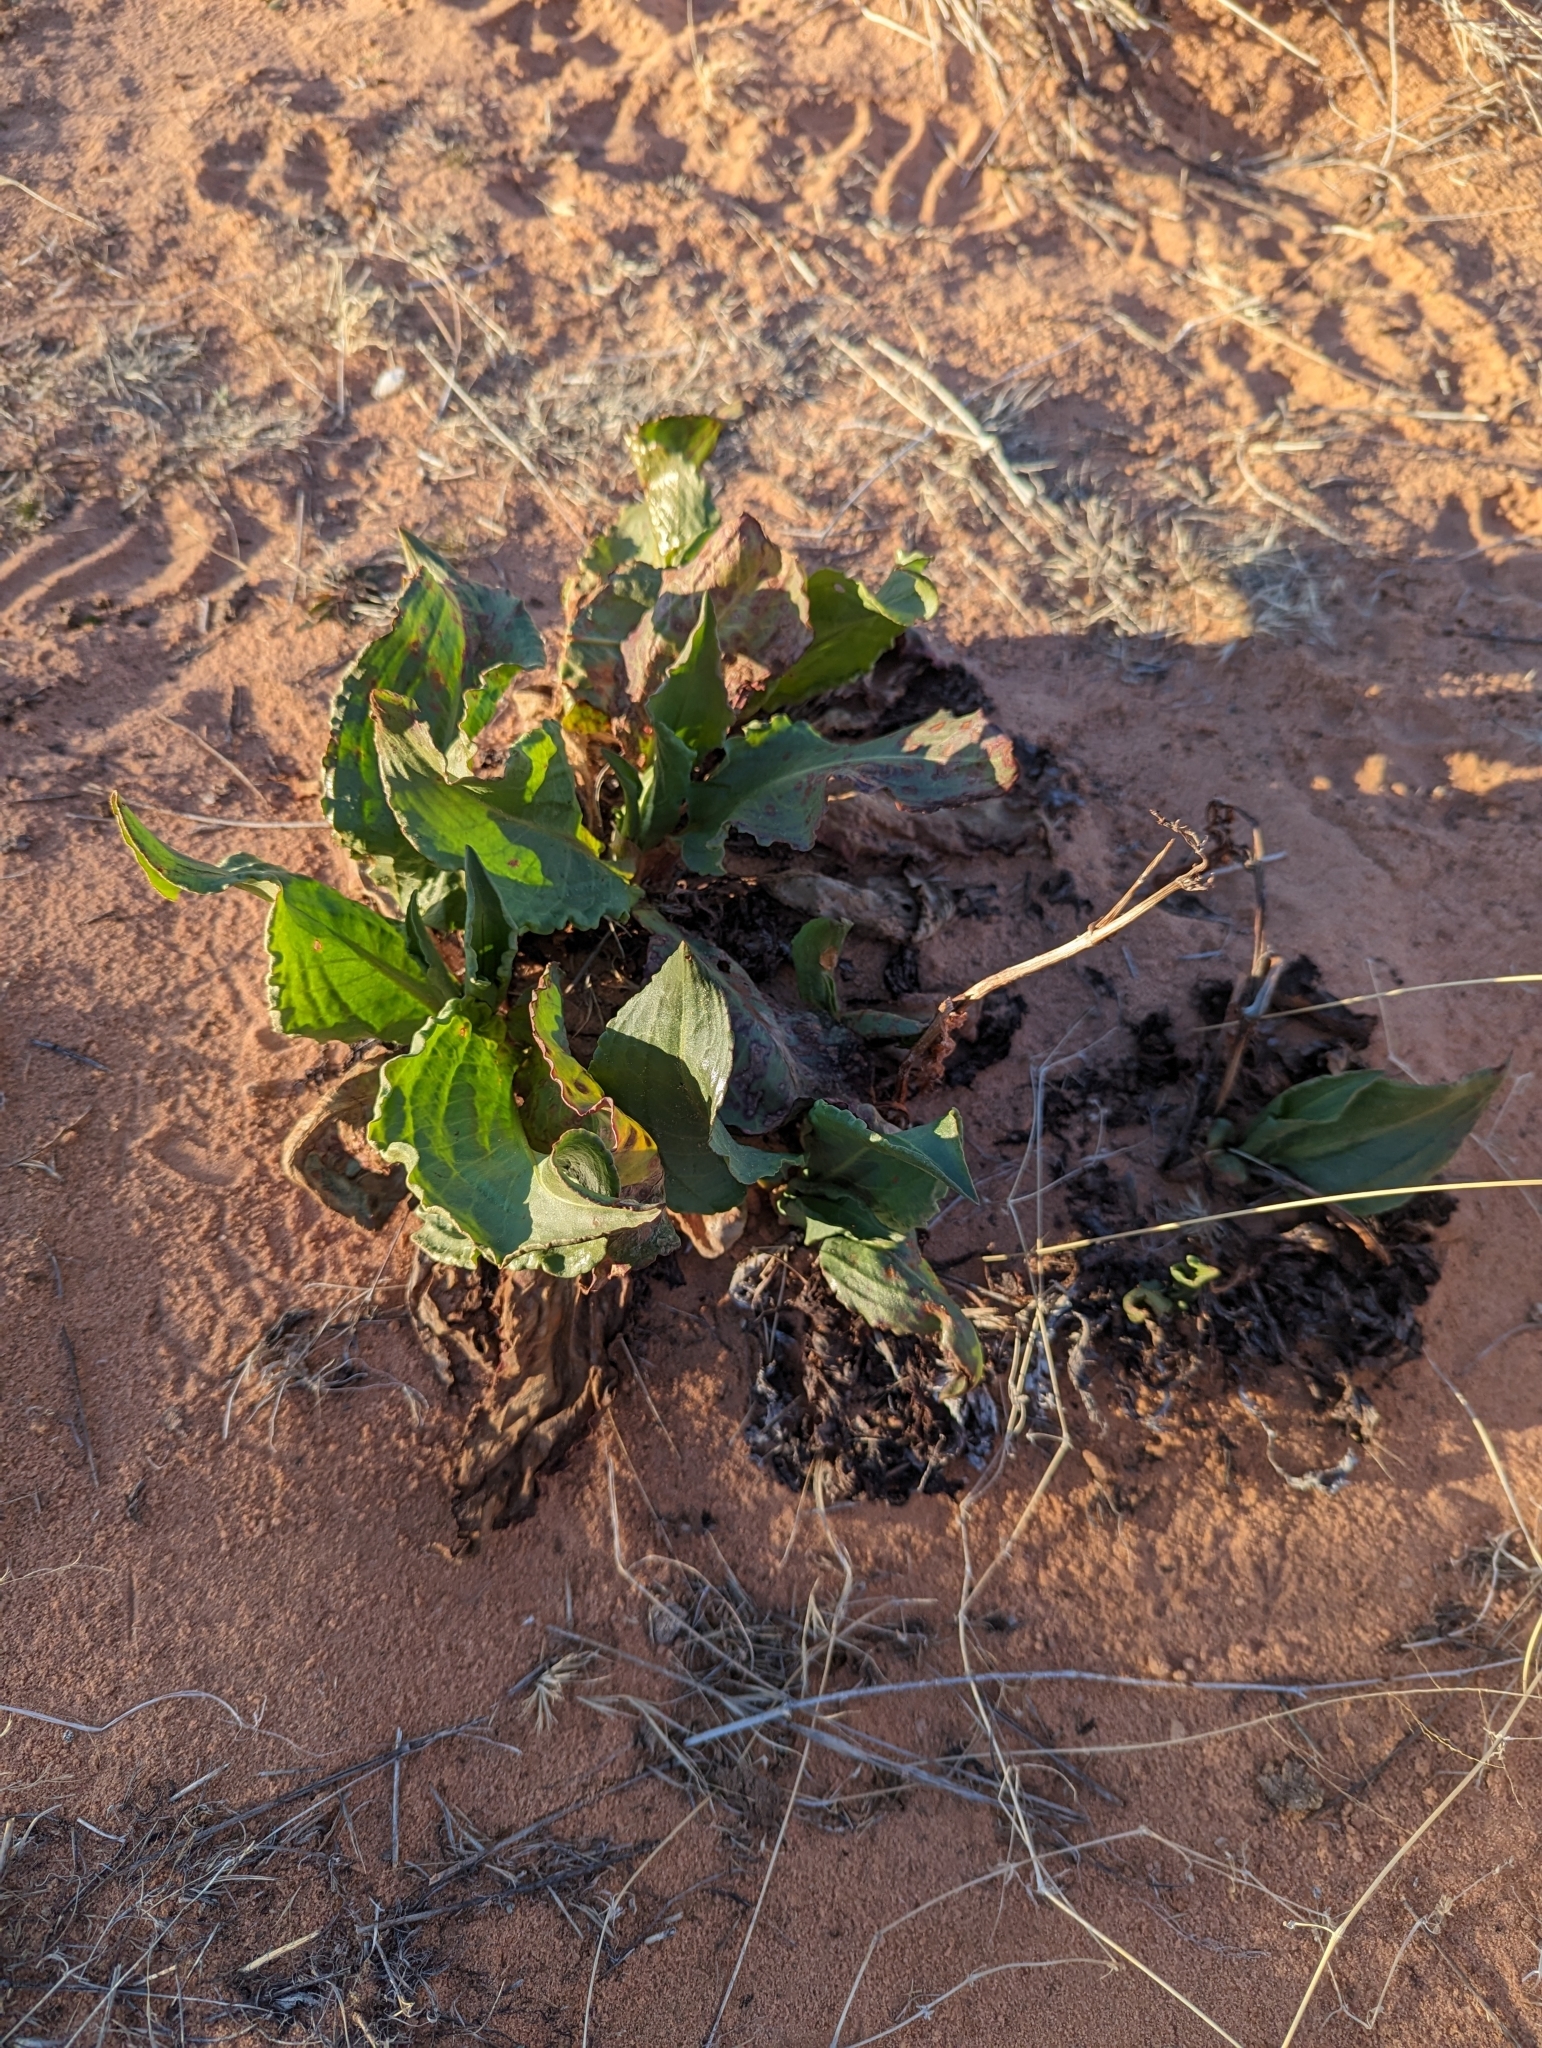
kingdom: Plantae
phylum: Tracheophyta
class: Magnoliopsida
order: Caryophyllales
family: Polygonaceae
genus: Rumex
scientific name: Rumex hymenosepalus
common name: Ganagra
